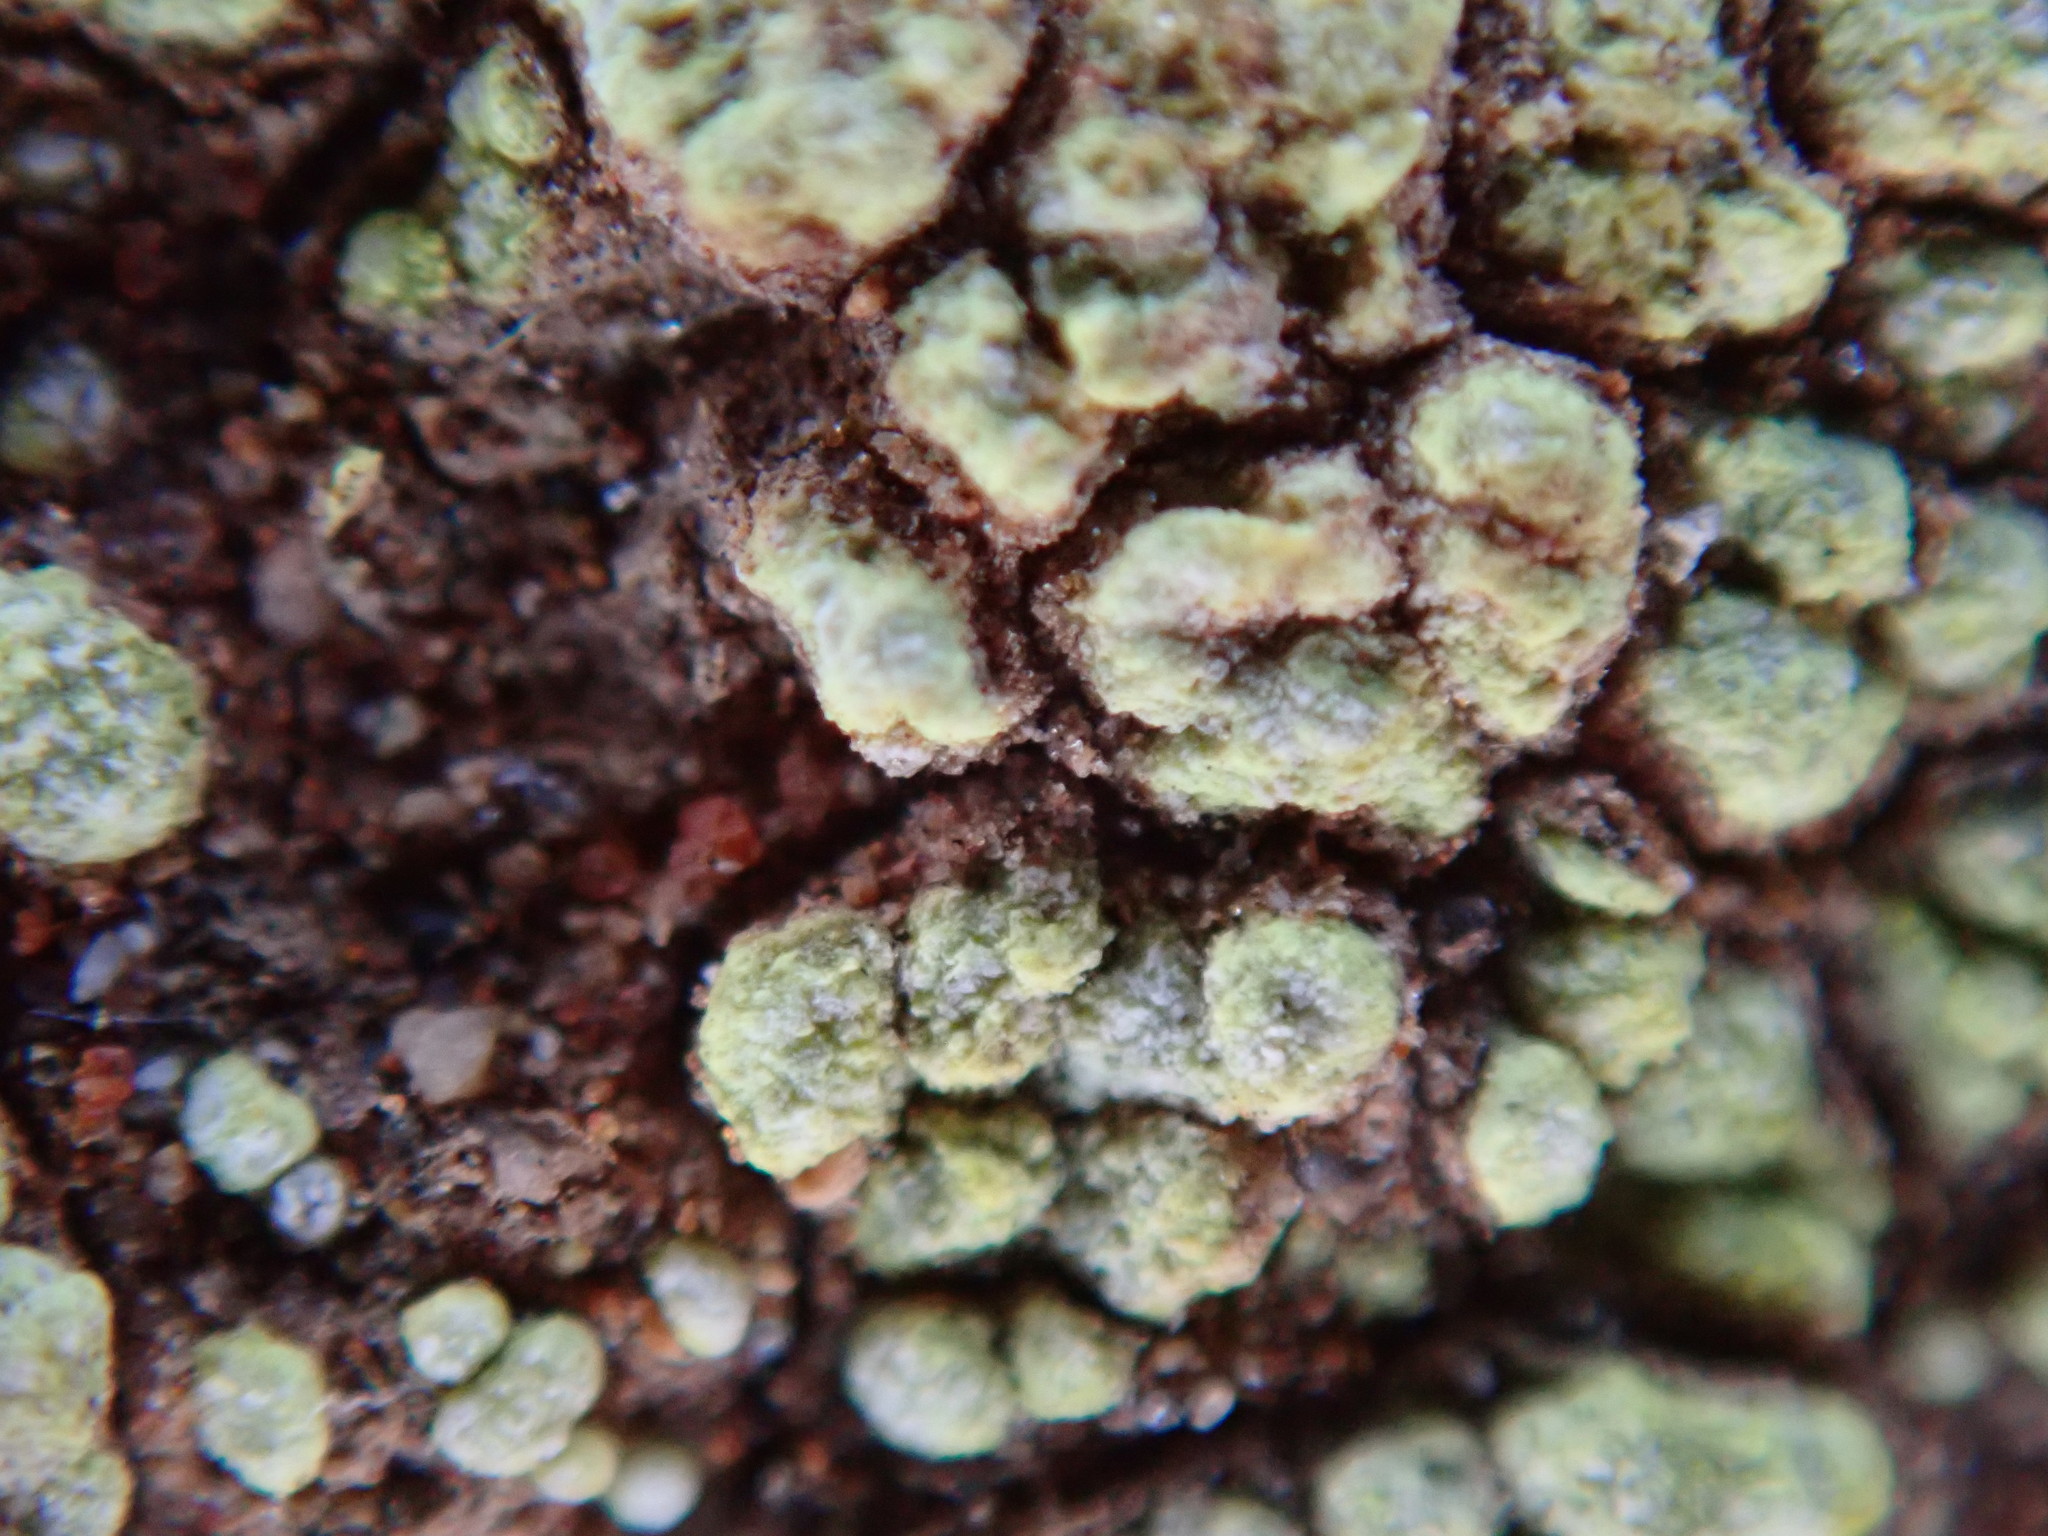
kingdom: Fungi
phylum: Ascomycota
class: Lecanoromycetes
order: Acarosporales
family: Acarosporaceae
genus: Acarospora
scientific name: Acarospora schleicheri
